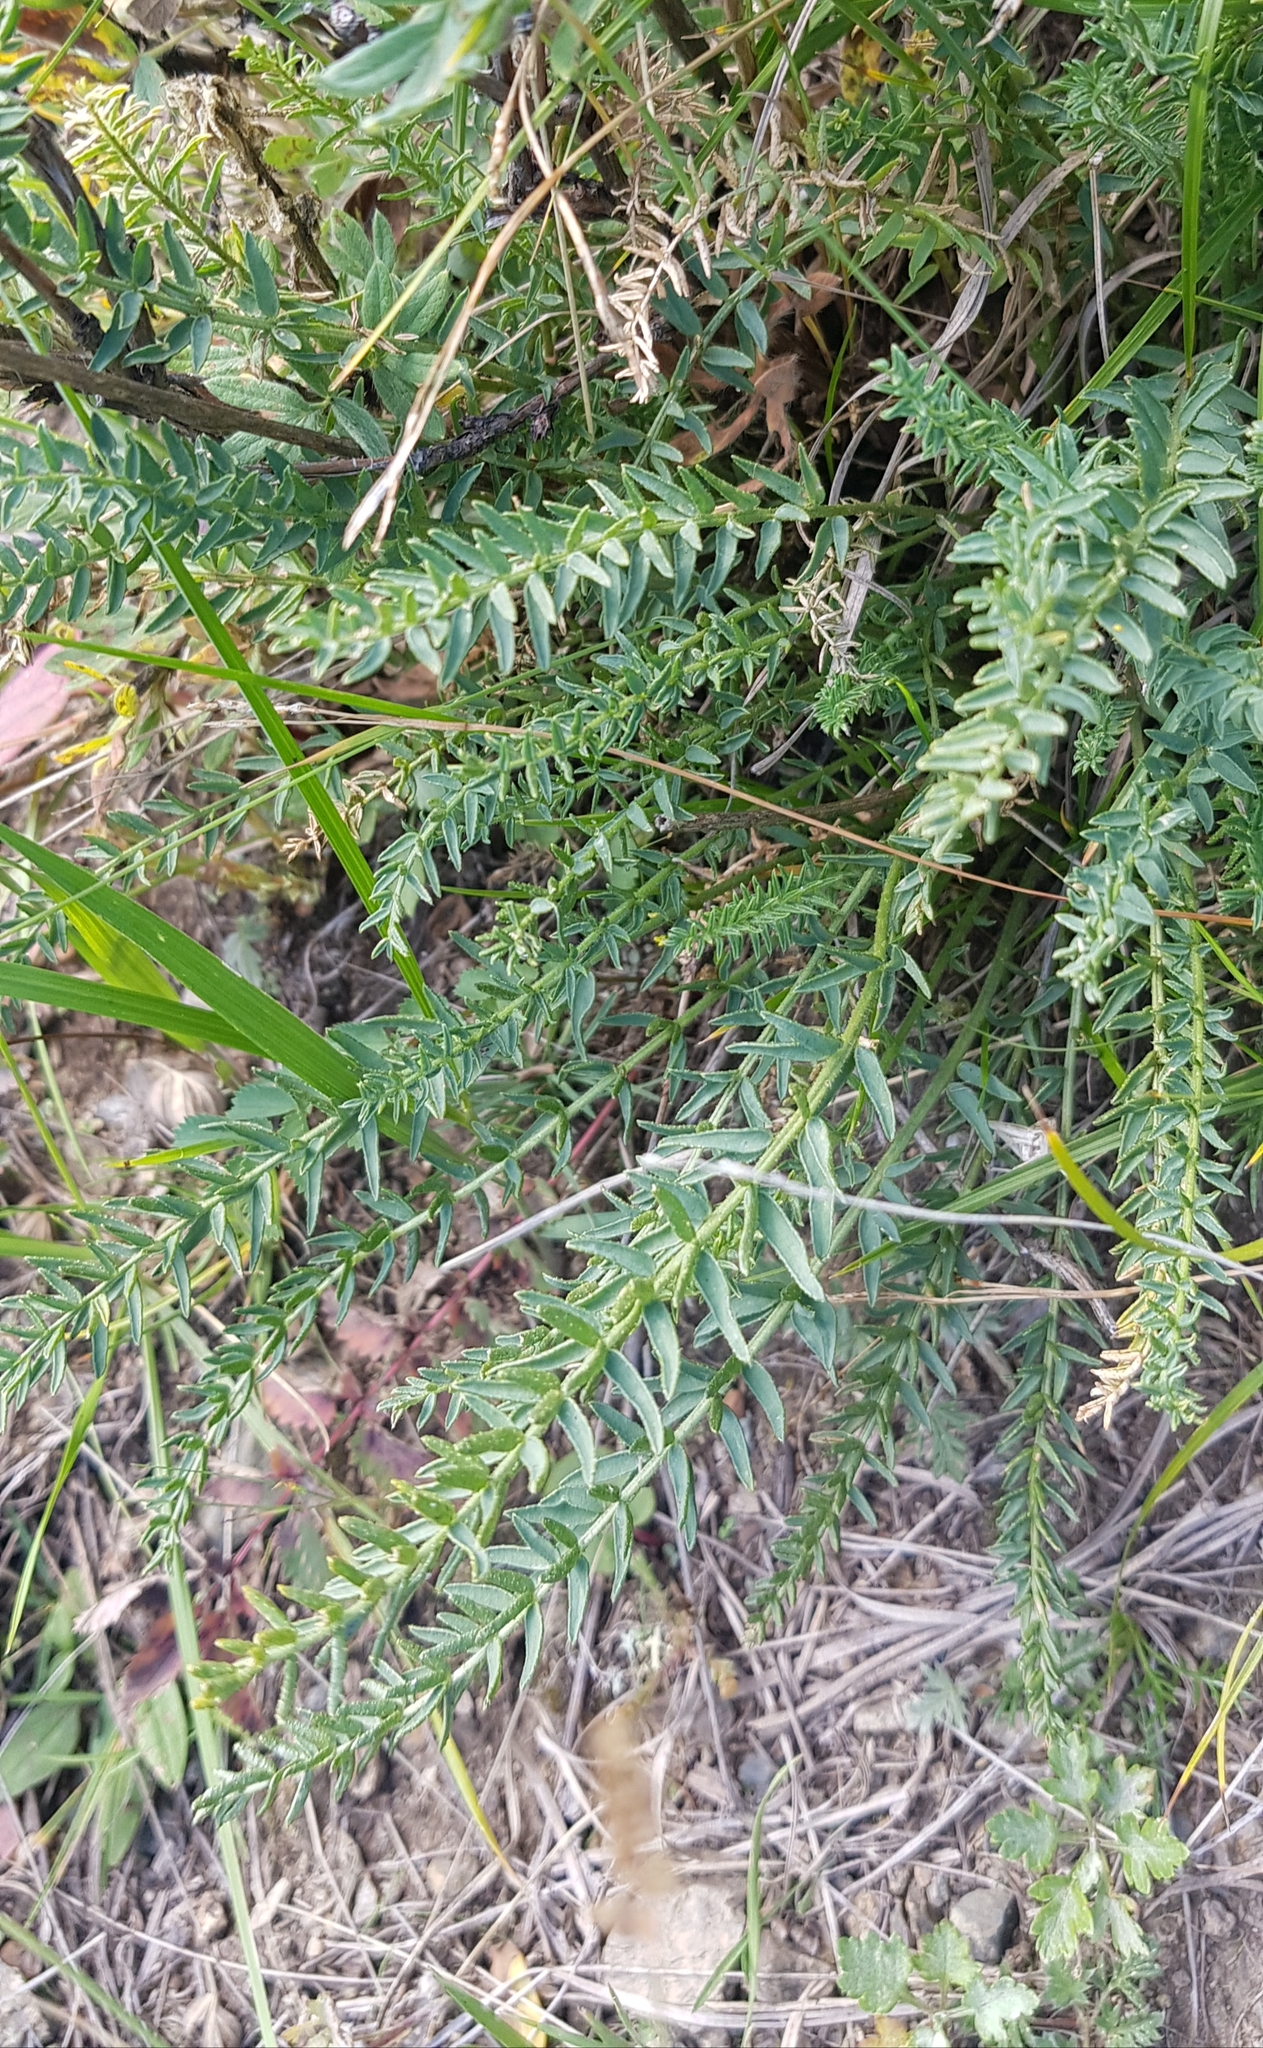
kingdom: Plantae
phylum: Tracheophyta
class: Magnoliopsida
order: Fabales
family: Fabaceae
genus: Oxytropis
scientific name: Oxytropis muricata
